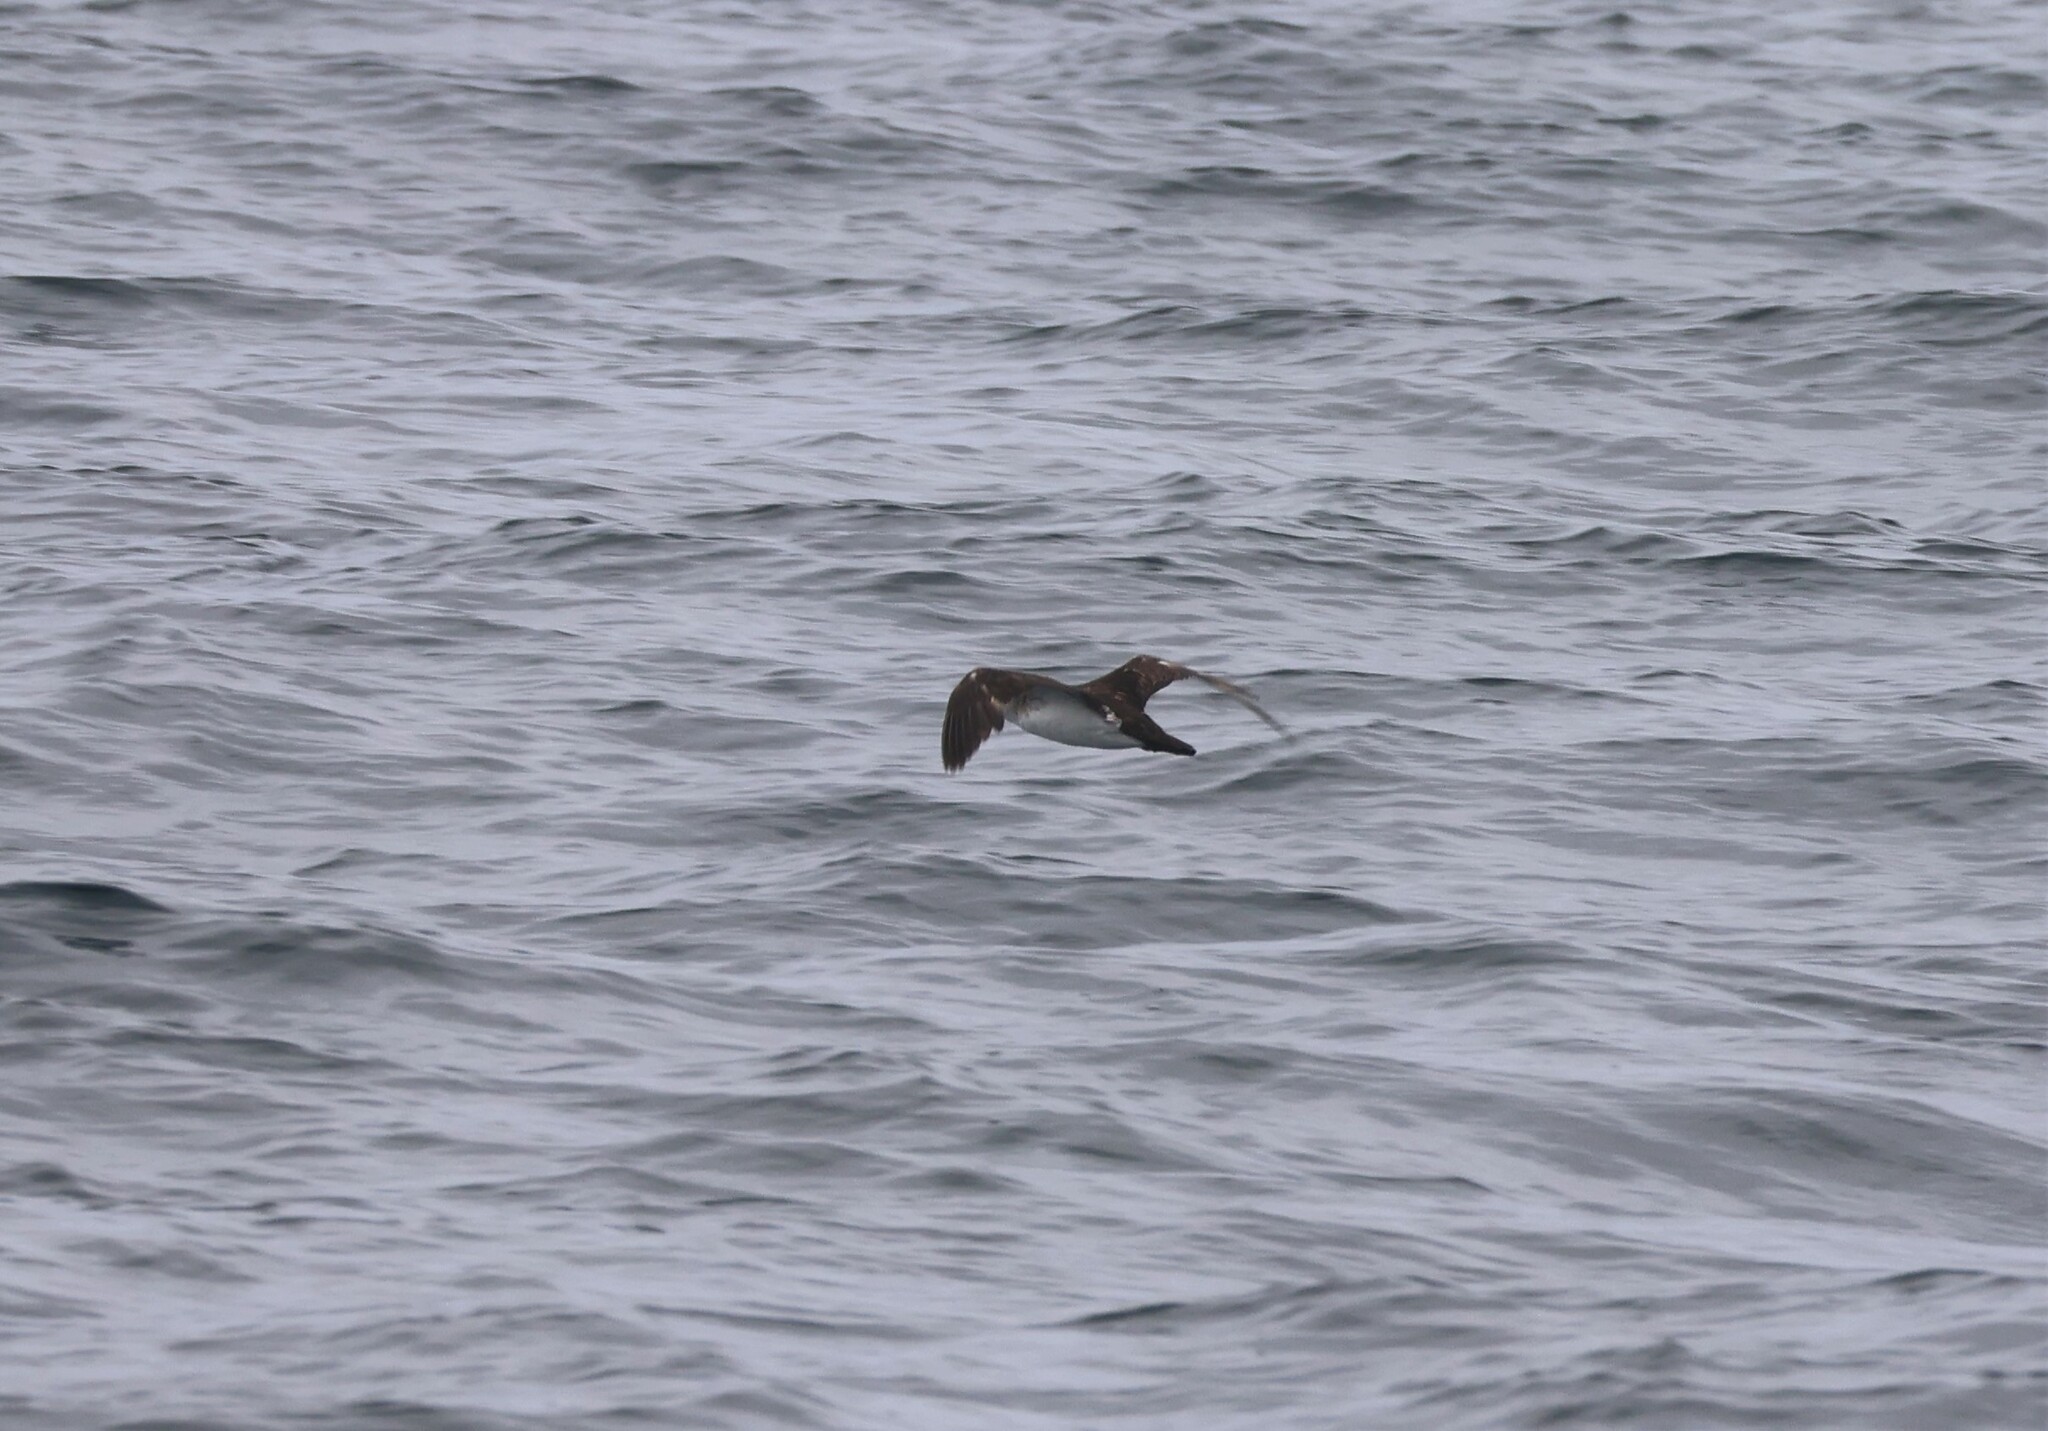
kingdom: Animalia
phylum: Chordata
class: Aves
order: Procellariiformes
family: Procellariidae
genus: Puffinus
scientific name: Puffinus opisthomelas
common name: Black-vented shearwater
